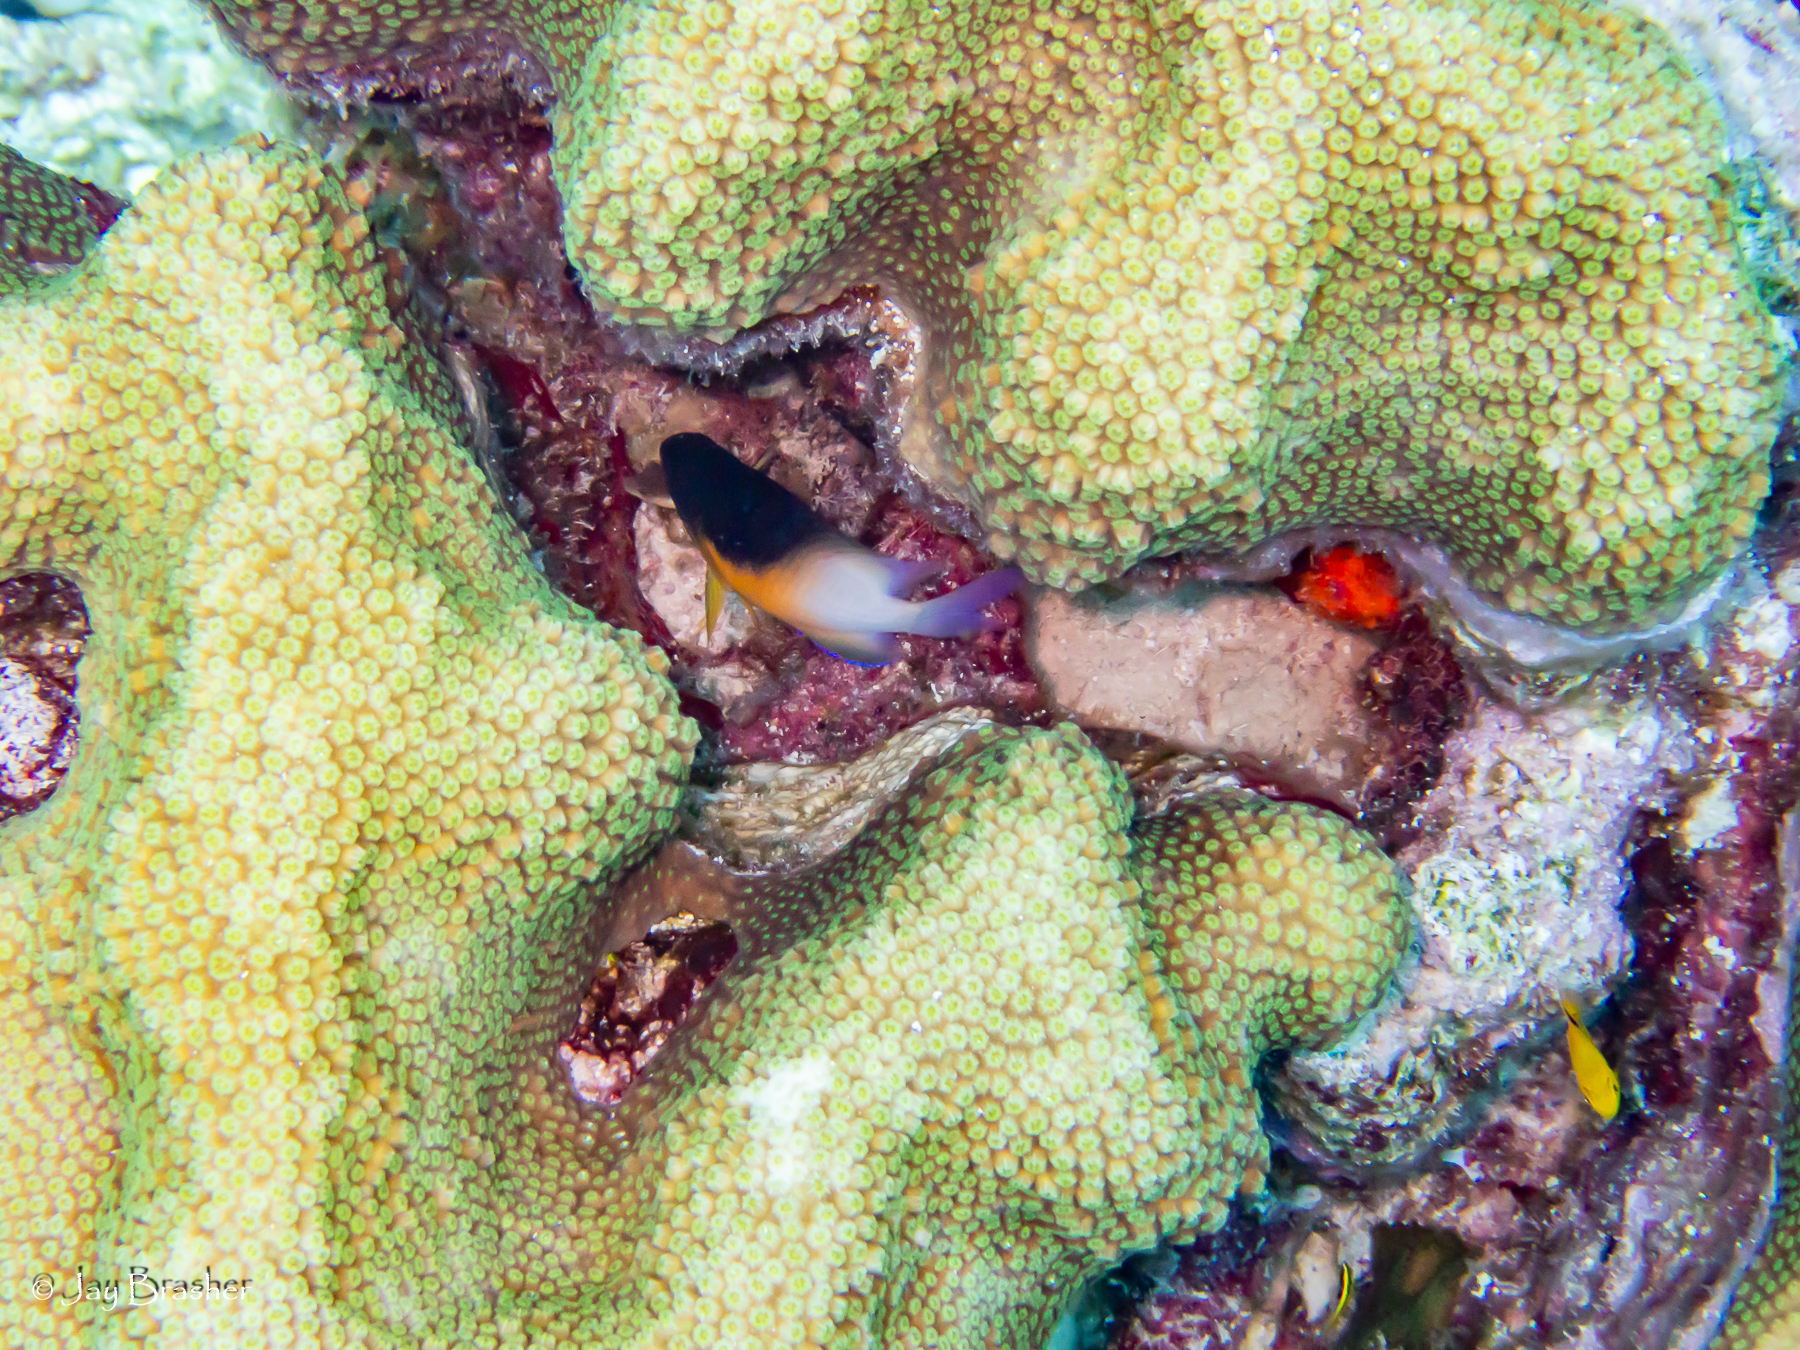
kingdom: Animalia
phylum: Chordata
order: Perciformes
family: Pomacentridae
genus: Stegastes
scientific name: Stegastes planifrons
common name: Threespot damselfish
